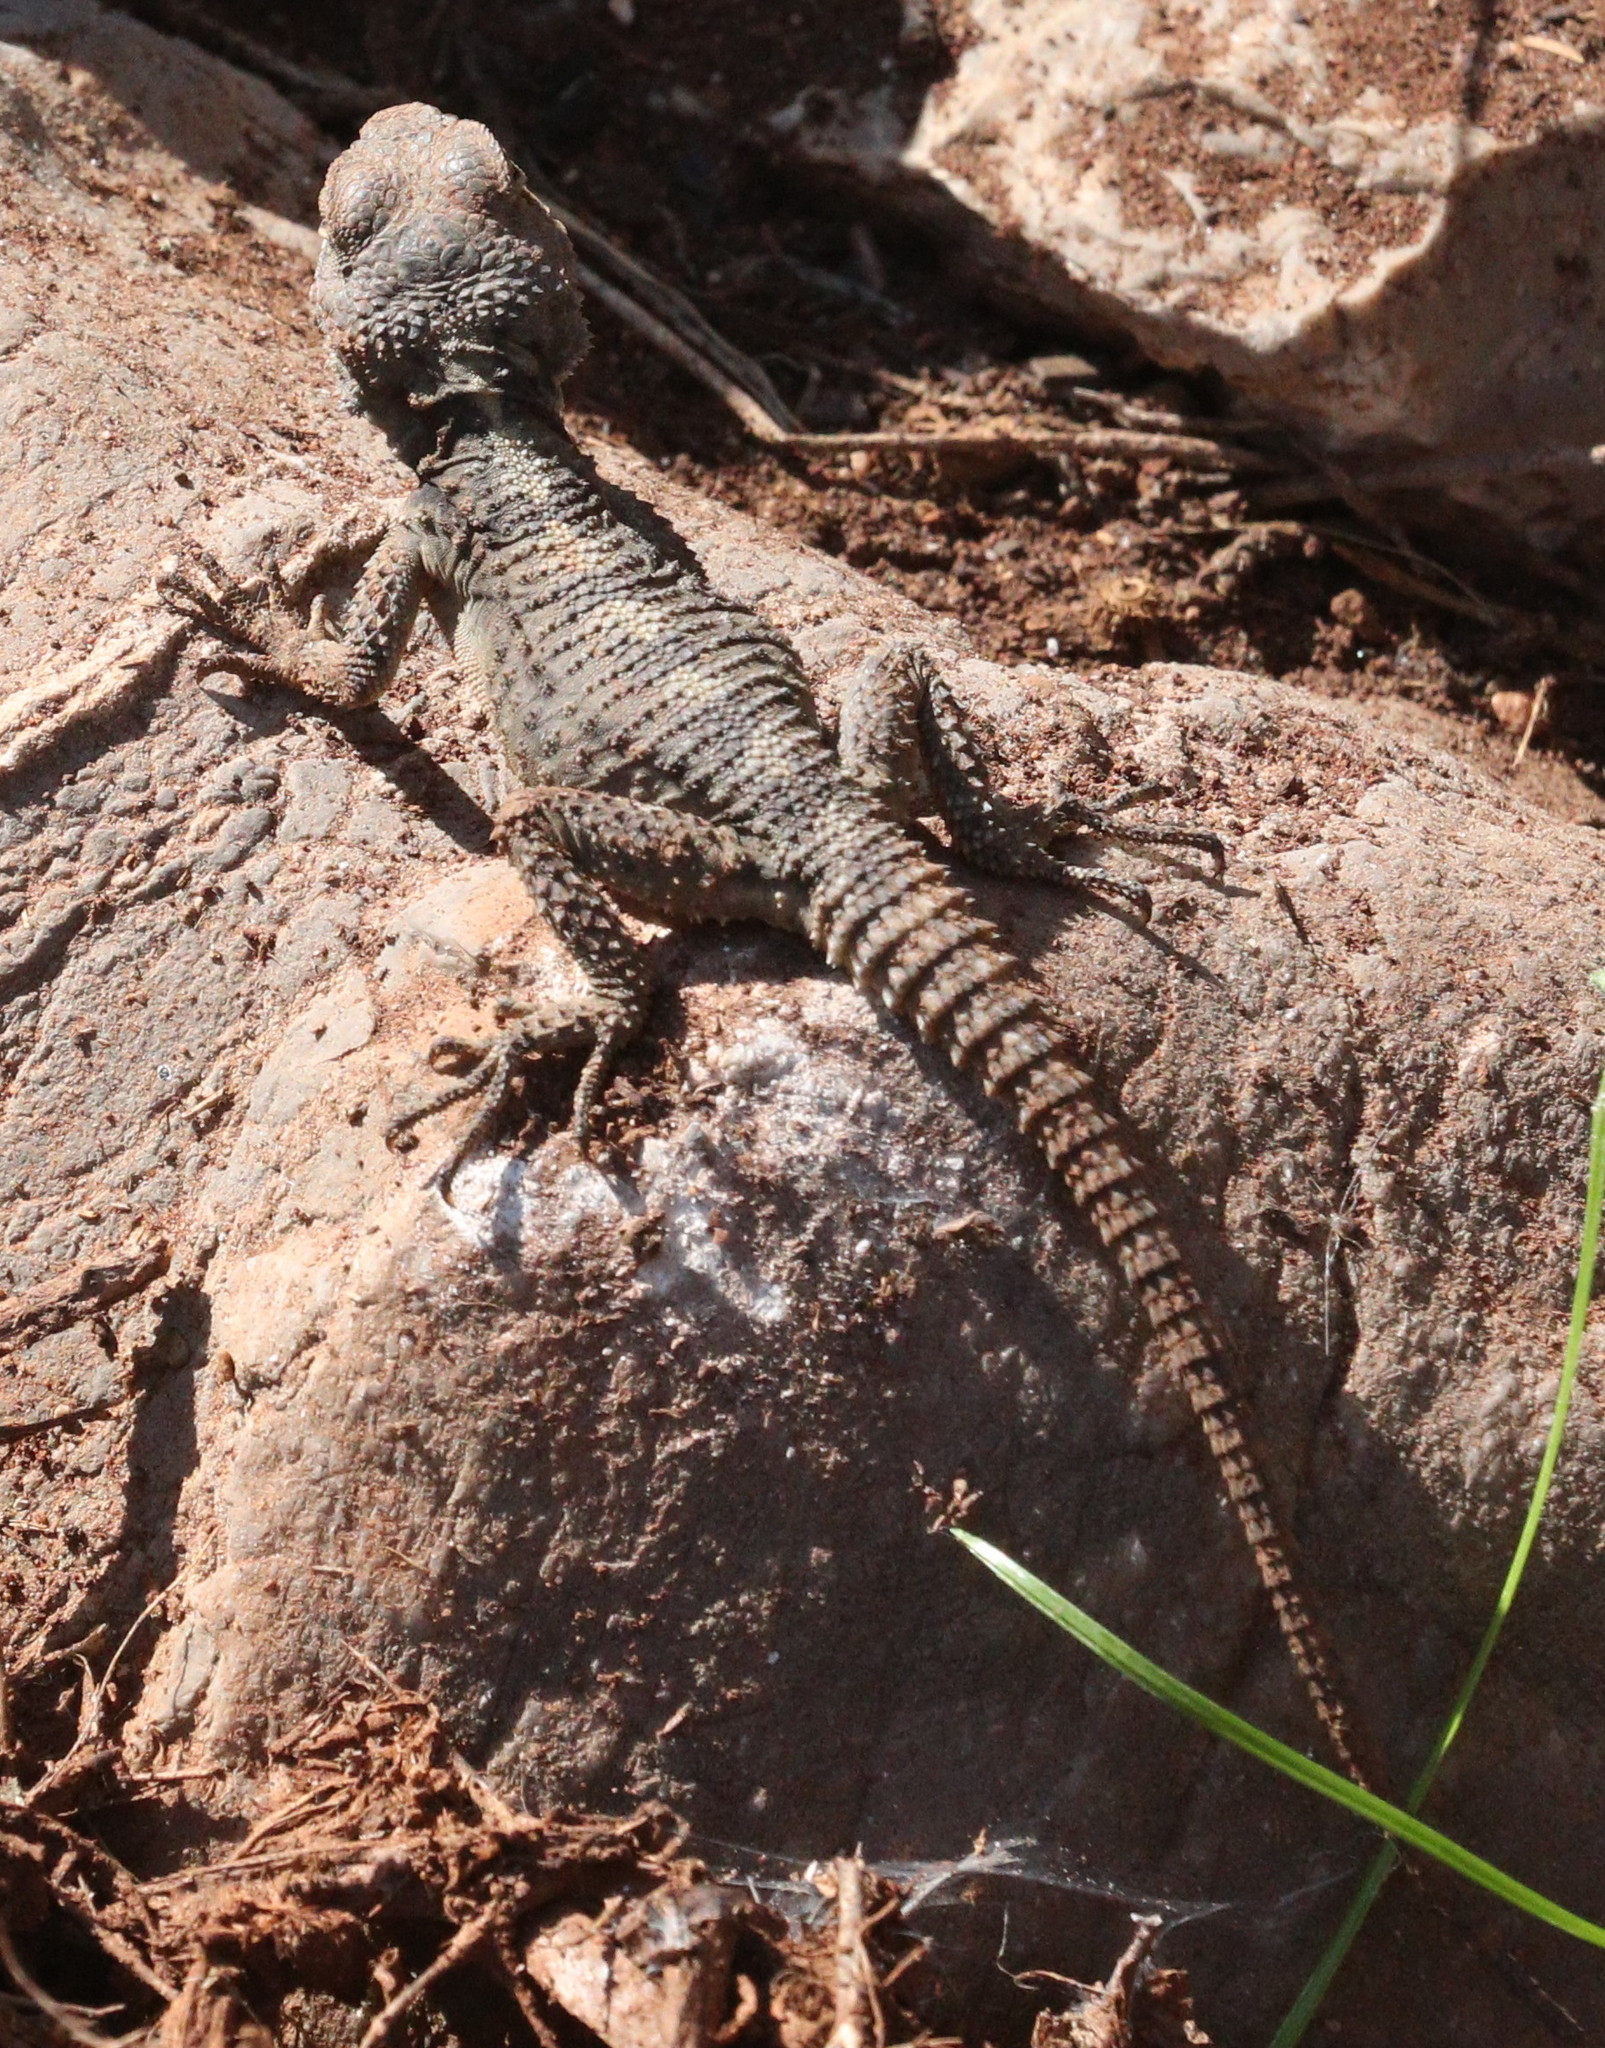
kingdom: Animalia
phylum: Chordata
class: Squamata
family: Agamidae
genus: Stellagama
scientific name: Stellagama stellio
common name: Starred agama
